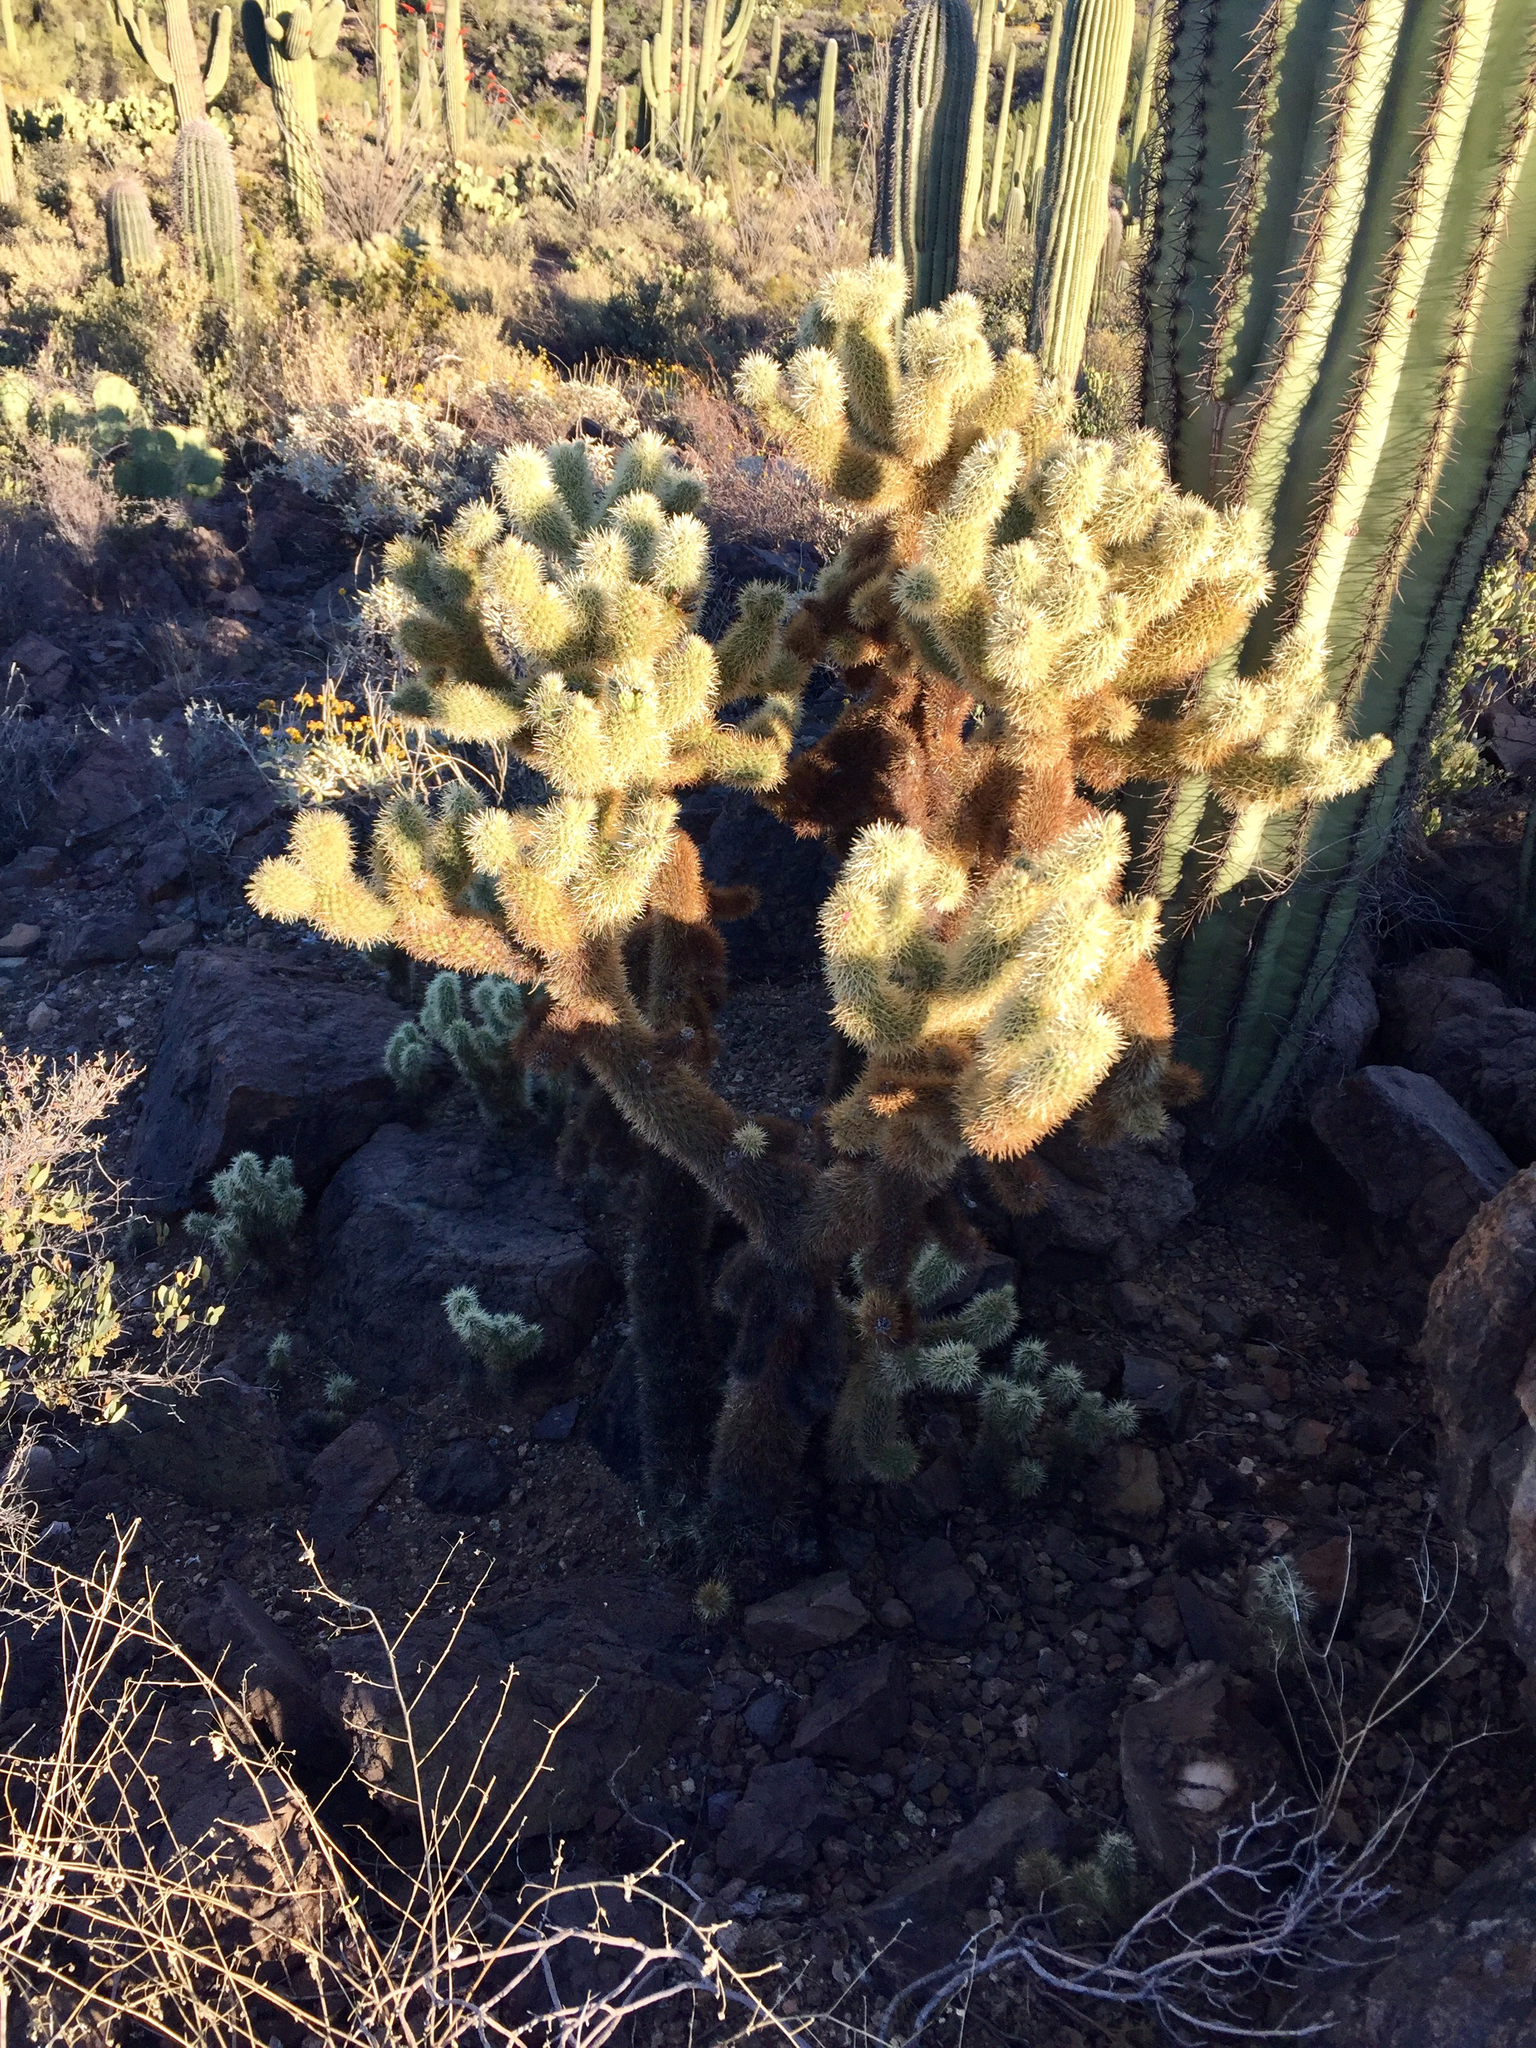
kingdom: Plantae
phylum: Tracheophyta
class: Magnoliopsida
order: Caryophyllales
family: Cactaceae
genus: Cylindropuntia
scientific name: Cylindropuntia fosbergii
